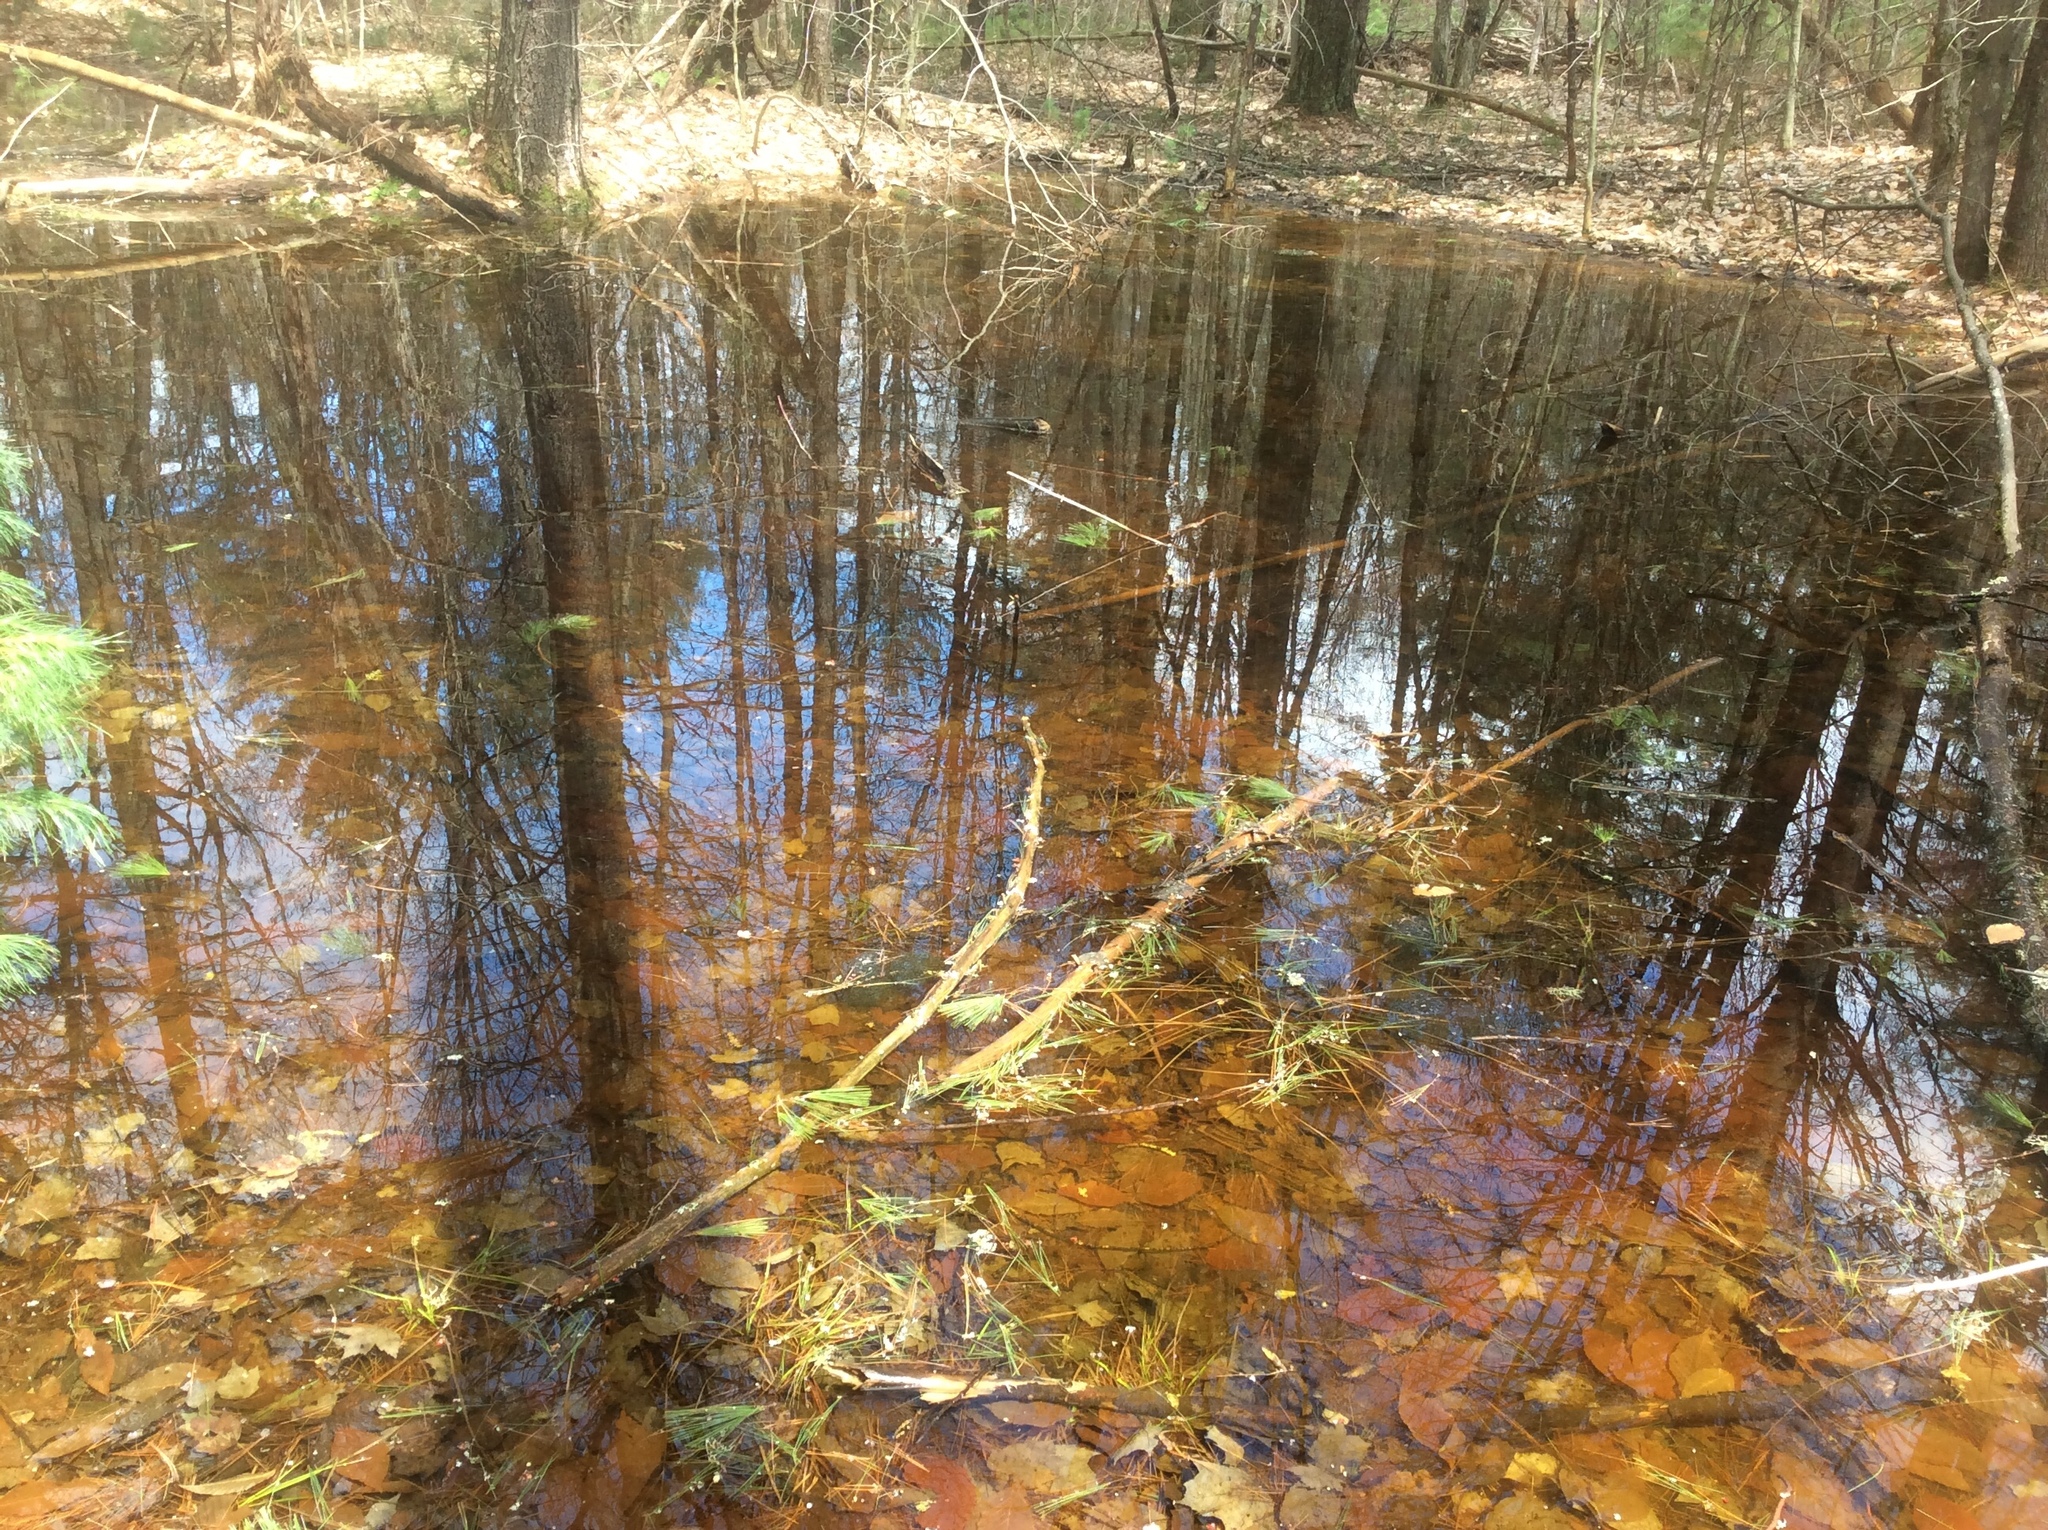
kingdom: Animalia
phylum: Chordata
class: Amphibia
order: Anura
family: Ranidae
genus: Lithobates
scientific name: Lithobates sylvaticus
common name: Wood frog
